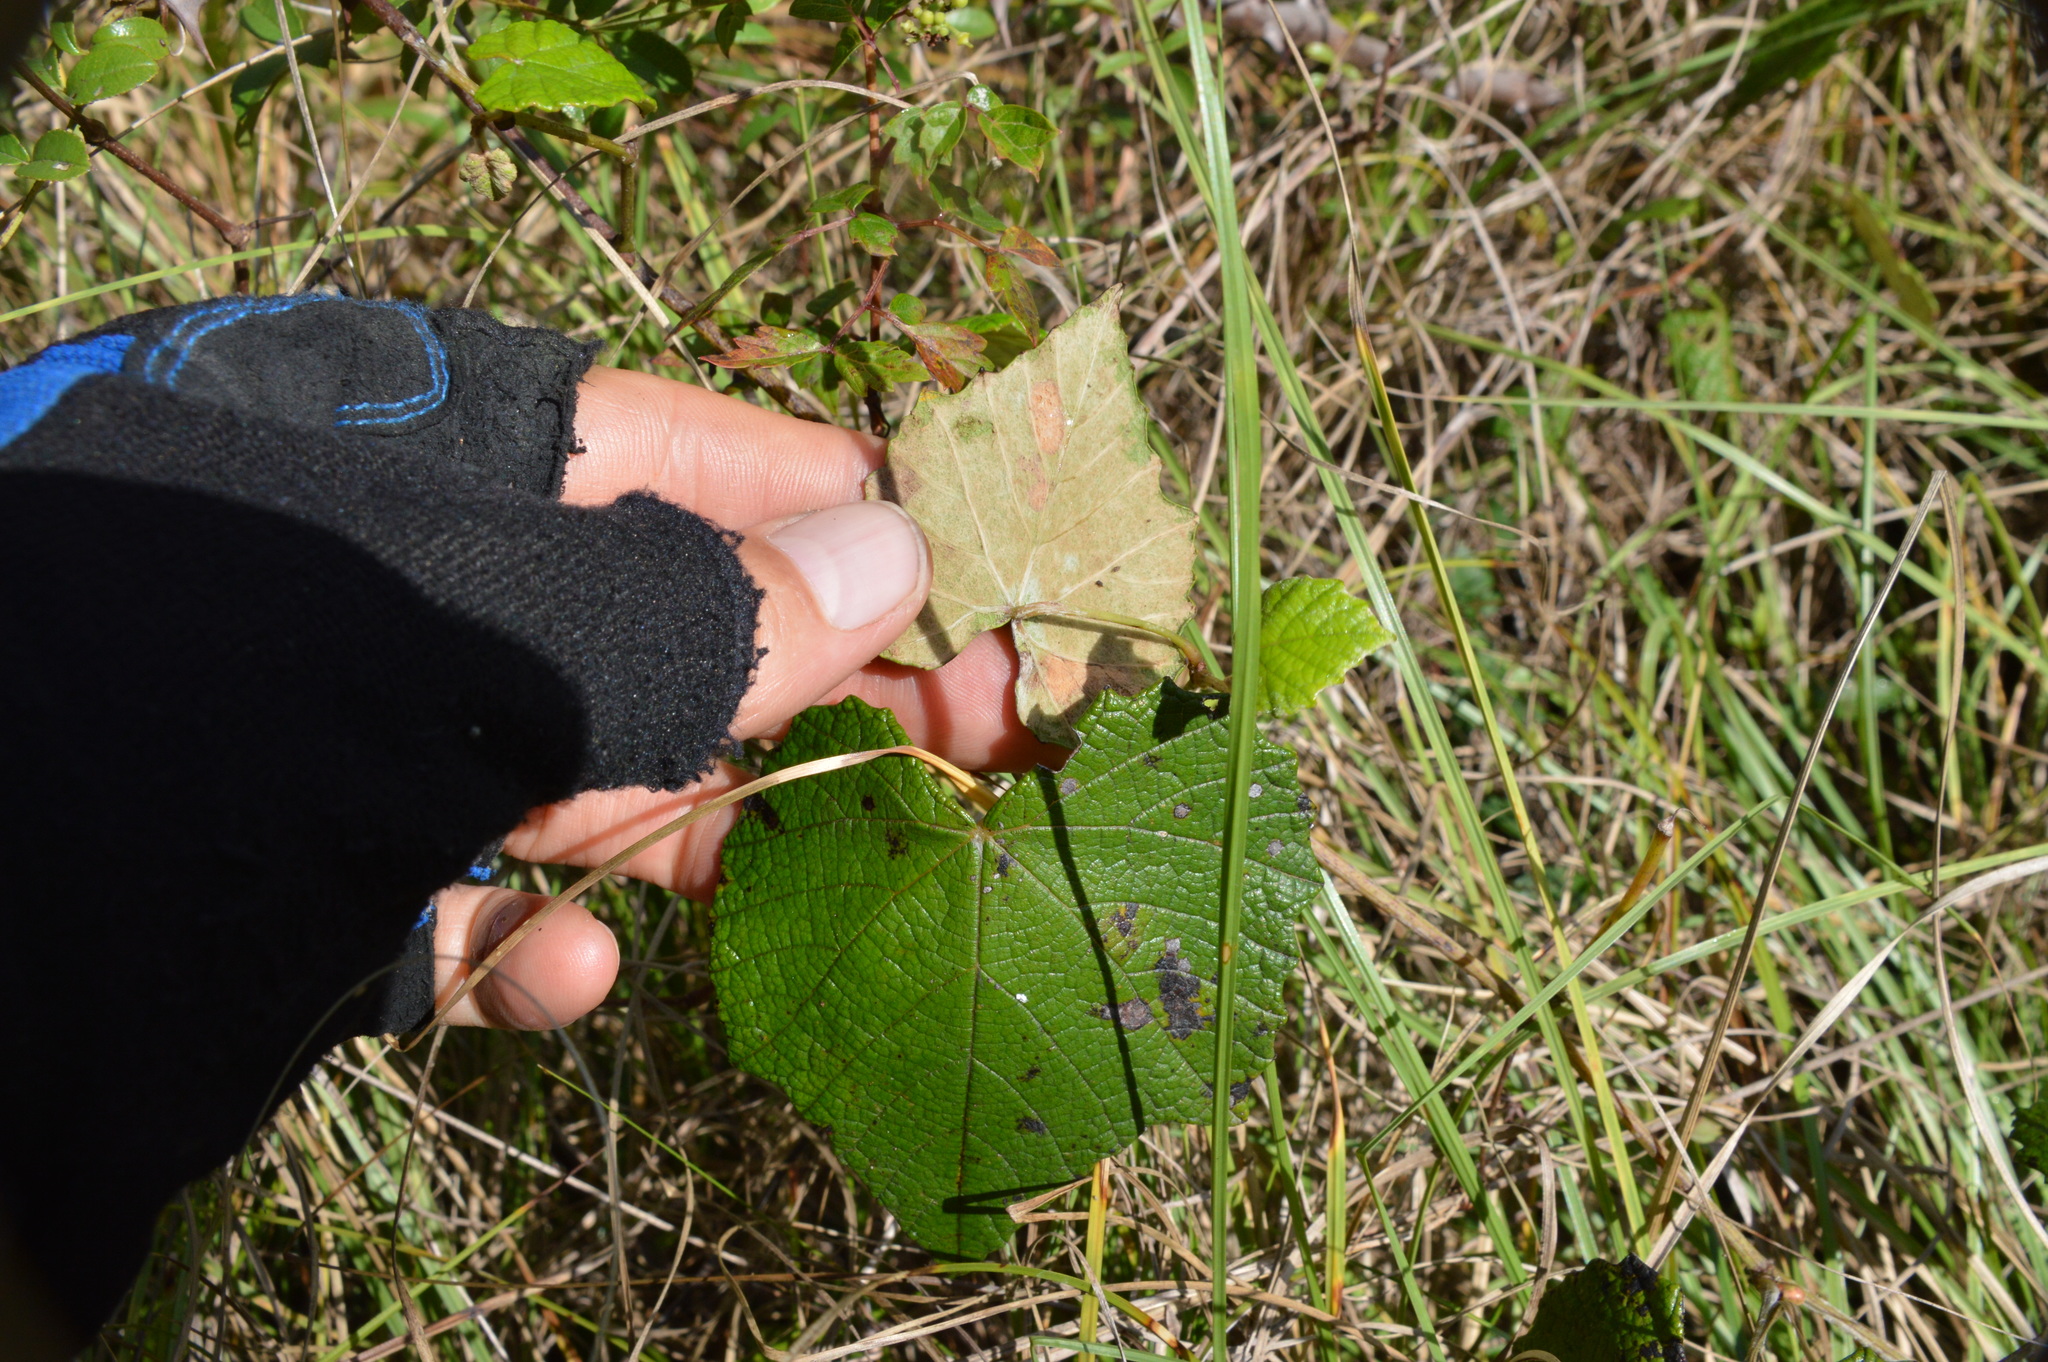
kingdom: Plantae
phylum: Tracheophyta
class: Magnoliopsida
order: Vitales
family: Vitaceae
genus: Vitis
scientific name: Vitis mustangensis
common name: Mustang grape
